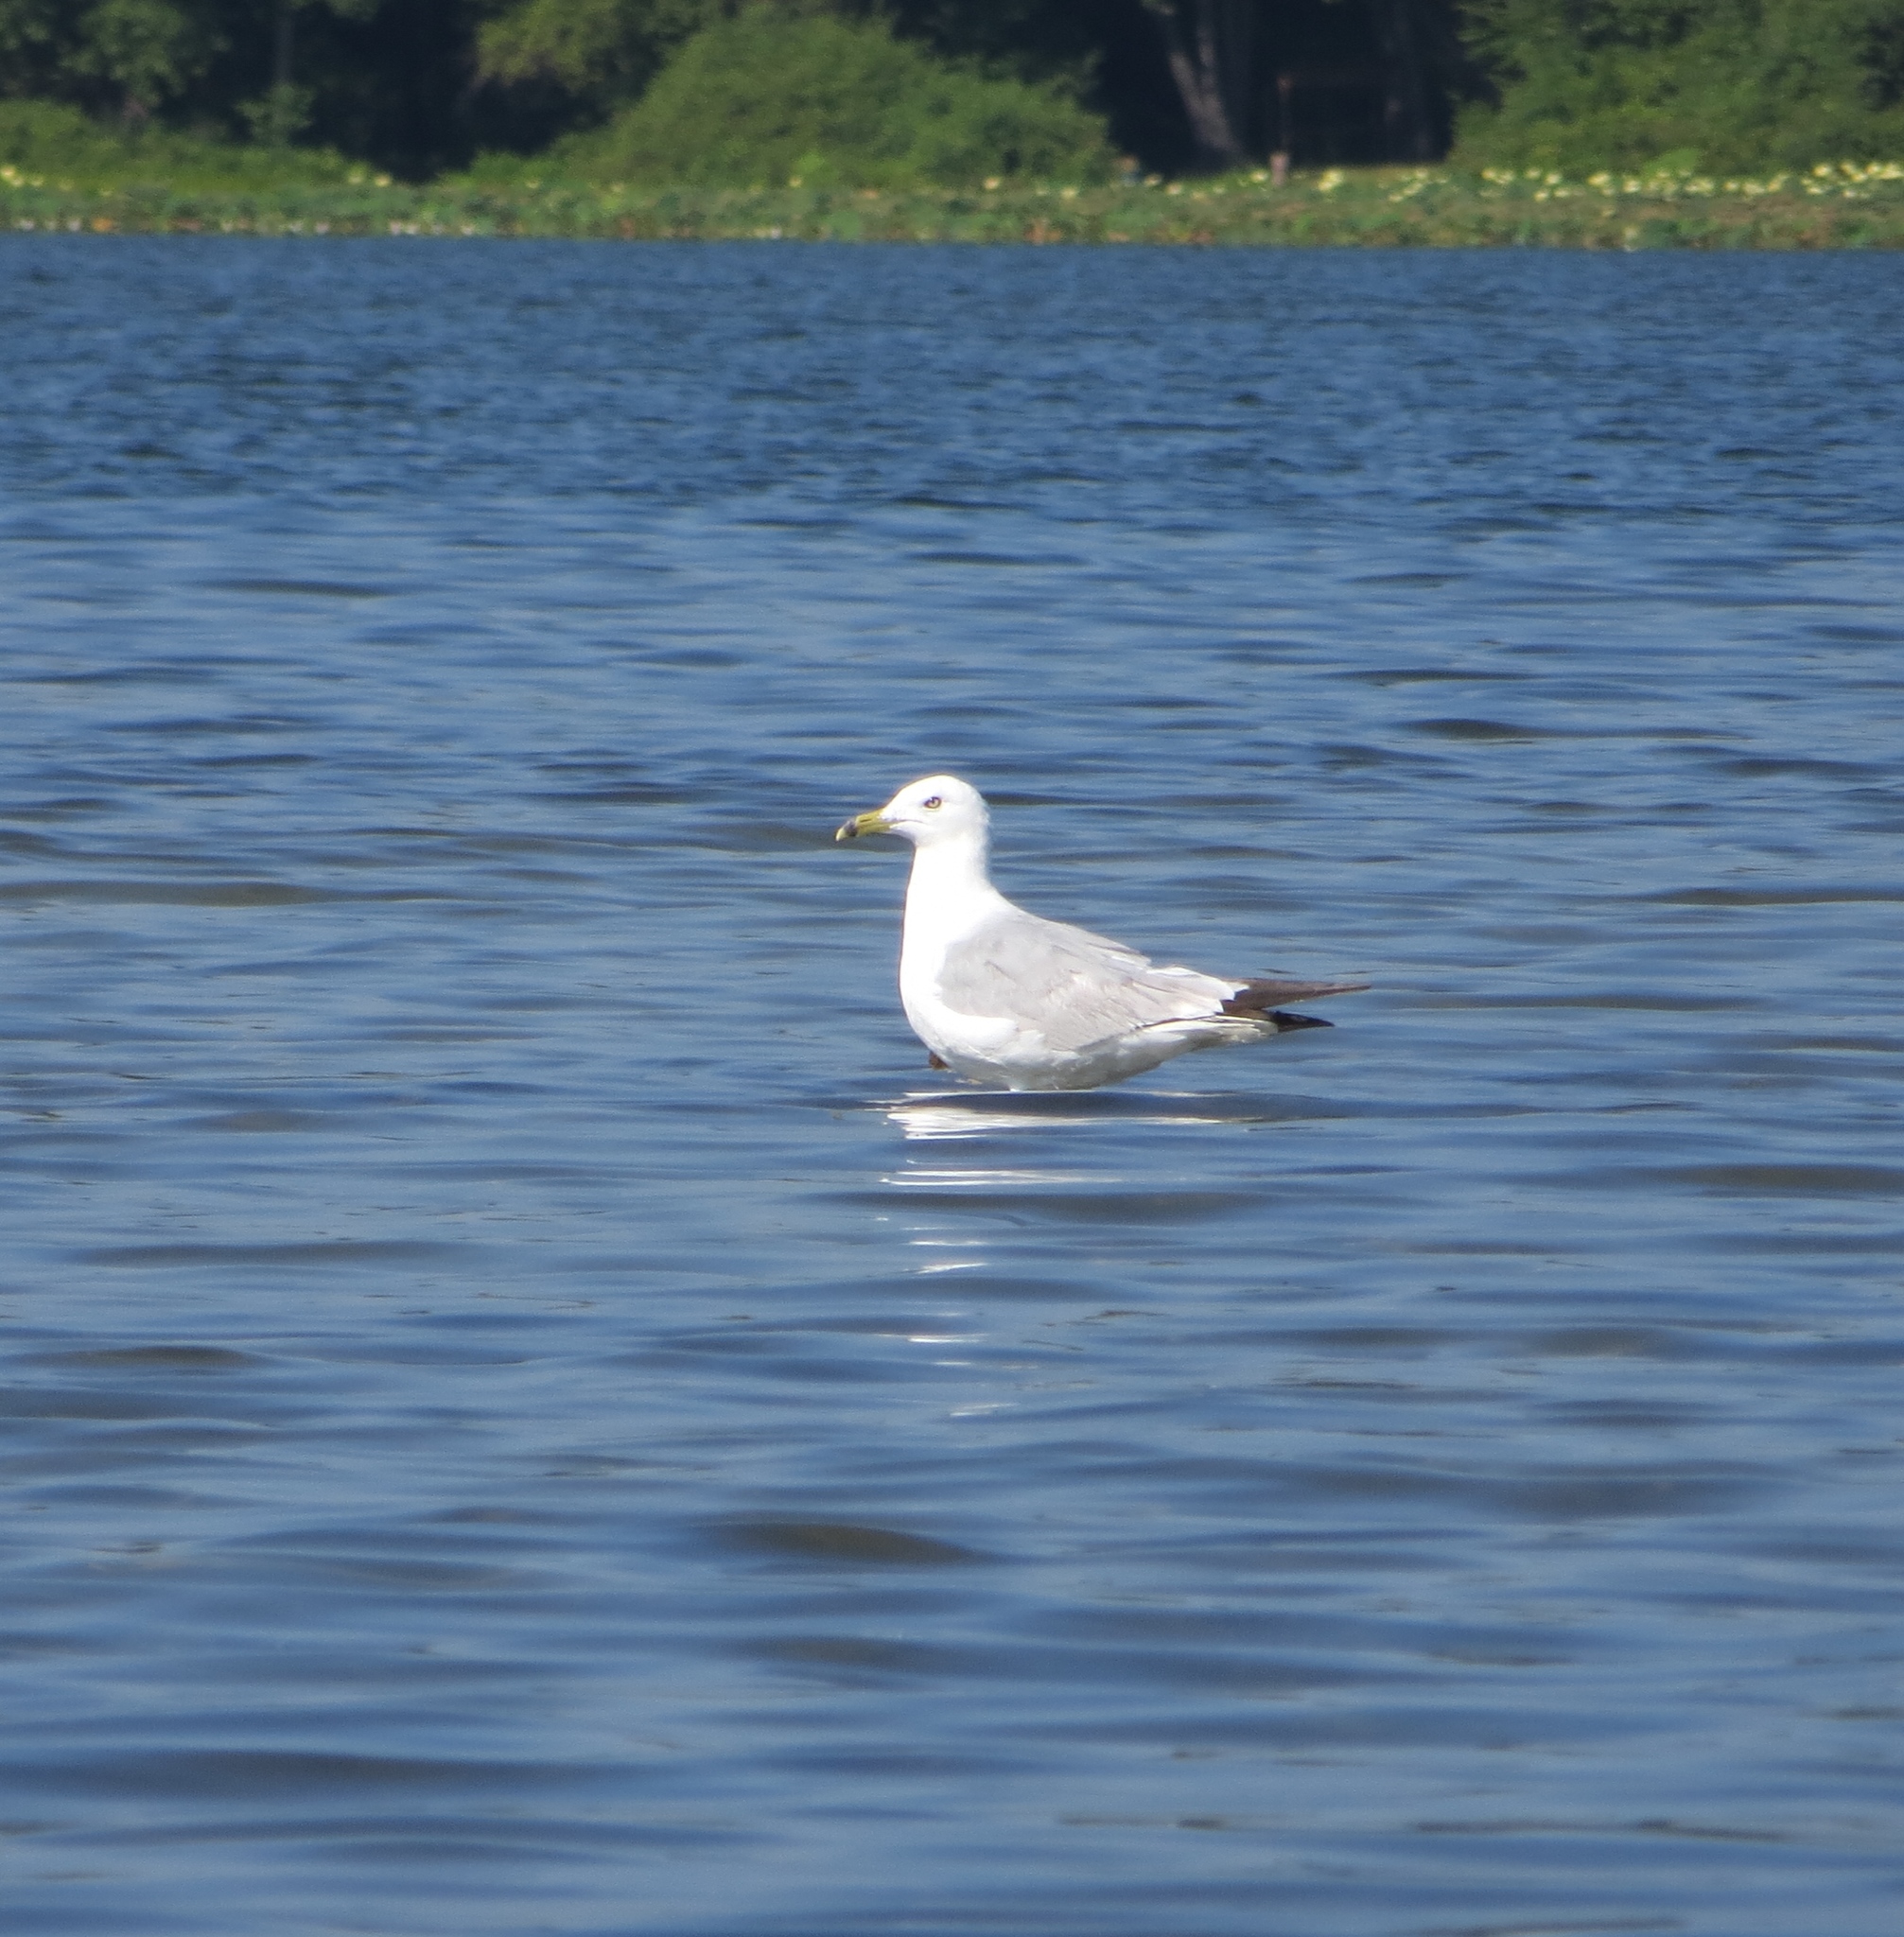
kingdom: Animalia
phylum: Chordata
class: Aves
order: Charadriiformes
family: Laridae
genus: Larus
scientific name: Larus delawarensis
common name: Ring-billed gull
